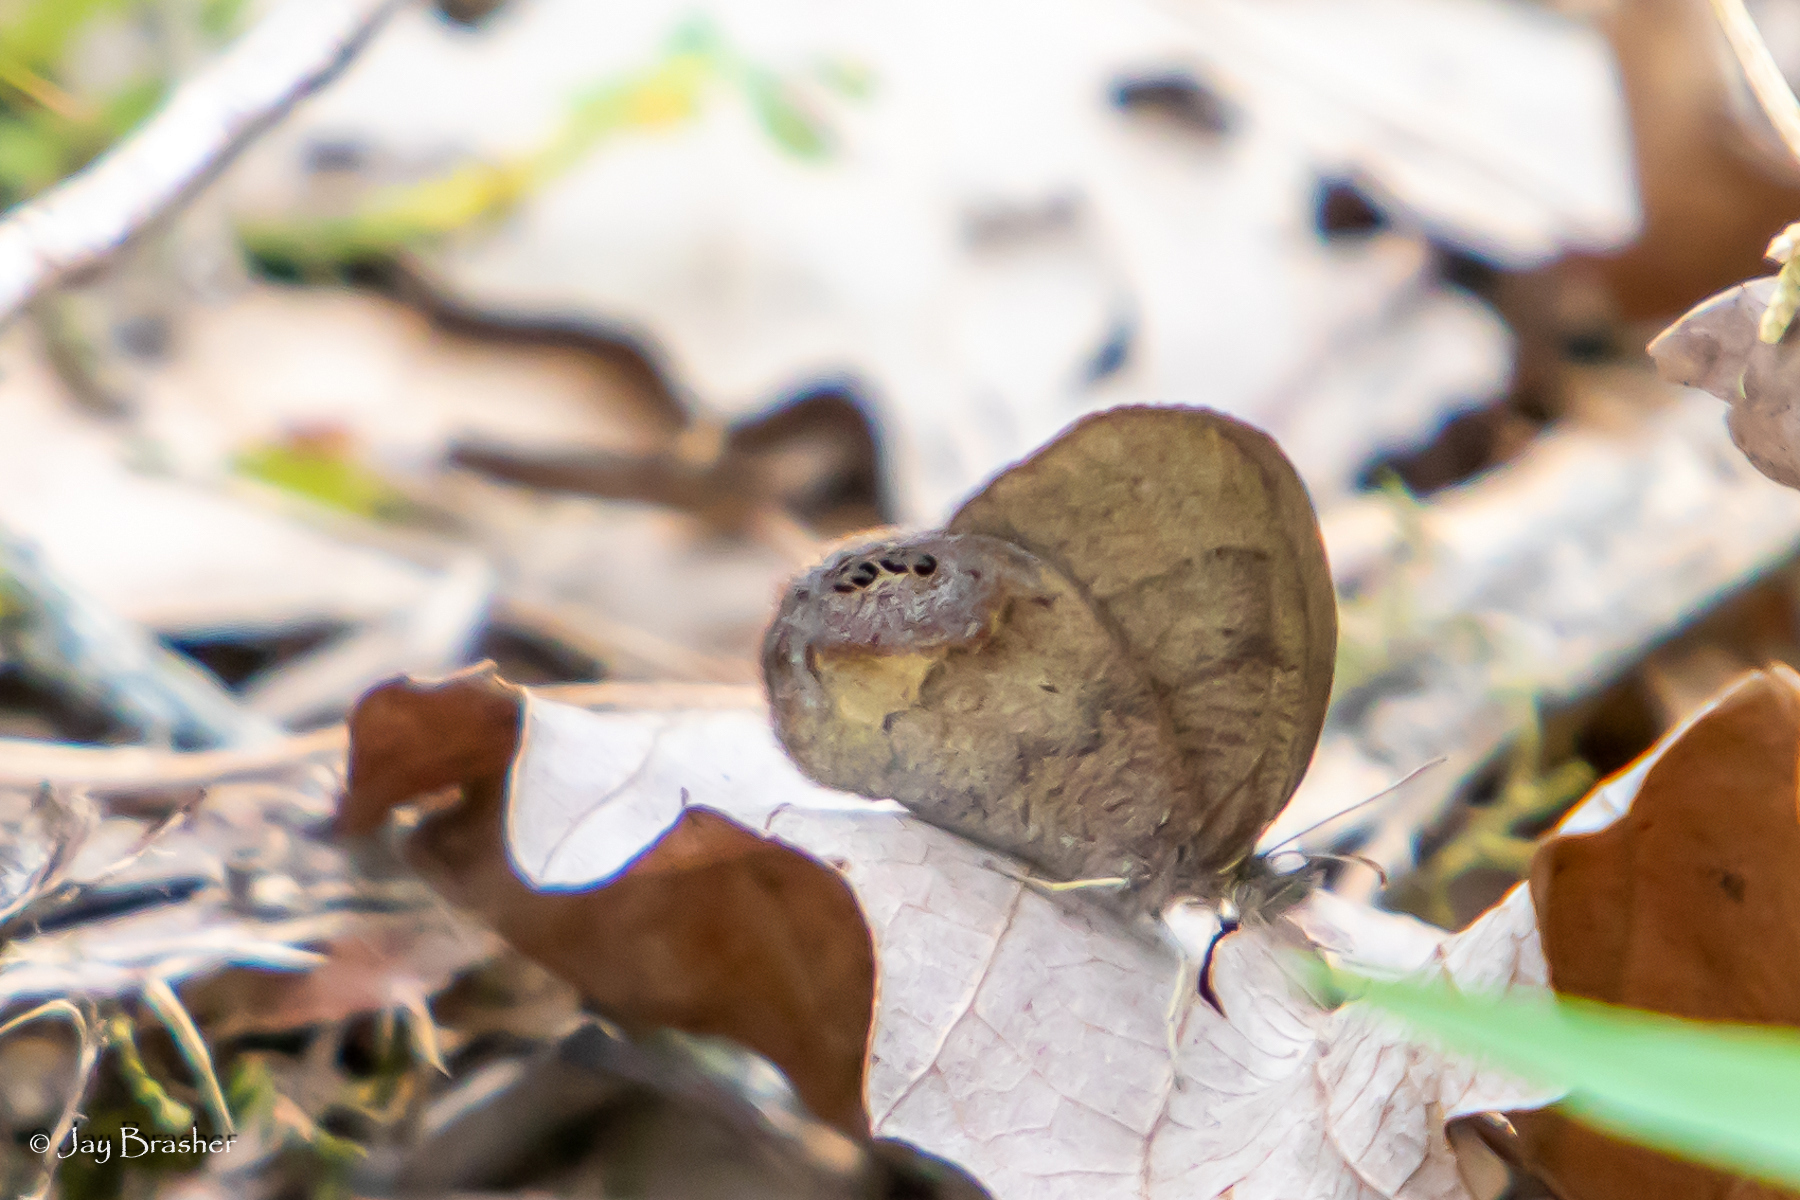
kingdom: Animalia
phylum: Arthropoda
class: Insecta
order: Lepidoptera
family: Nymphalidae
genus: Euptychia
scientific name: Euptychia cornelius
